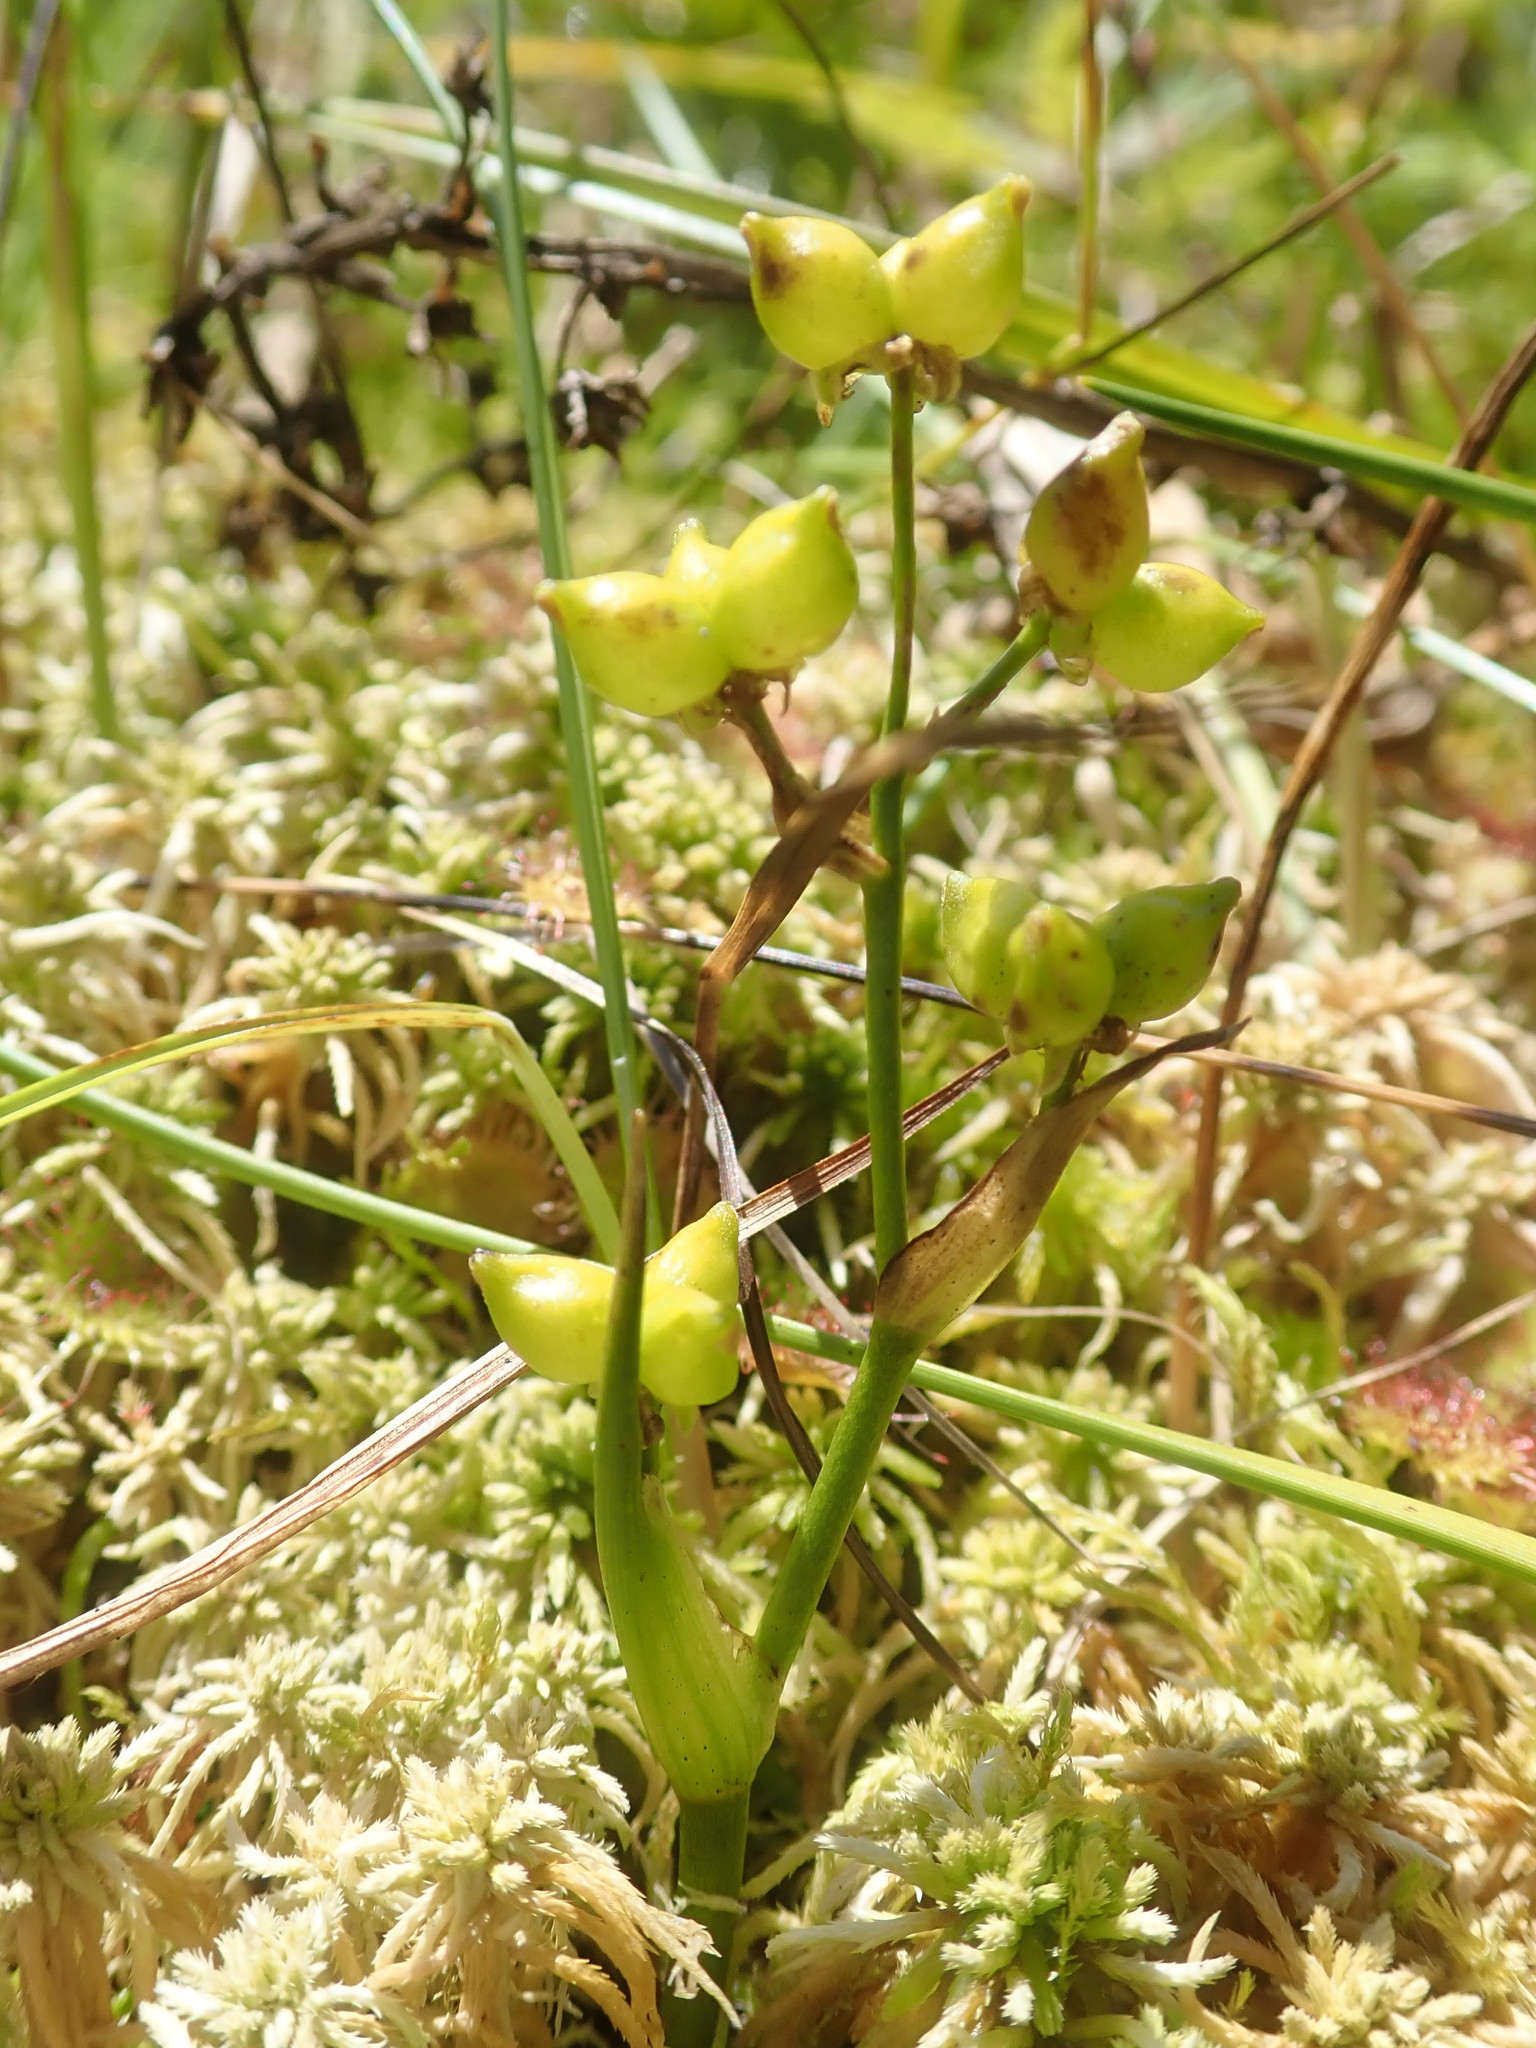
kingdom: Plantae
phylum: Tracheophyta
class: Liliopsida
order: Alismatales
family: Scheuchzeriaceae
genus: Scheuchzeria
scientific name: Scheuchzeria palustris
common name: Rannoch-rush
